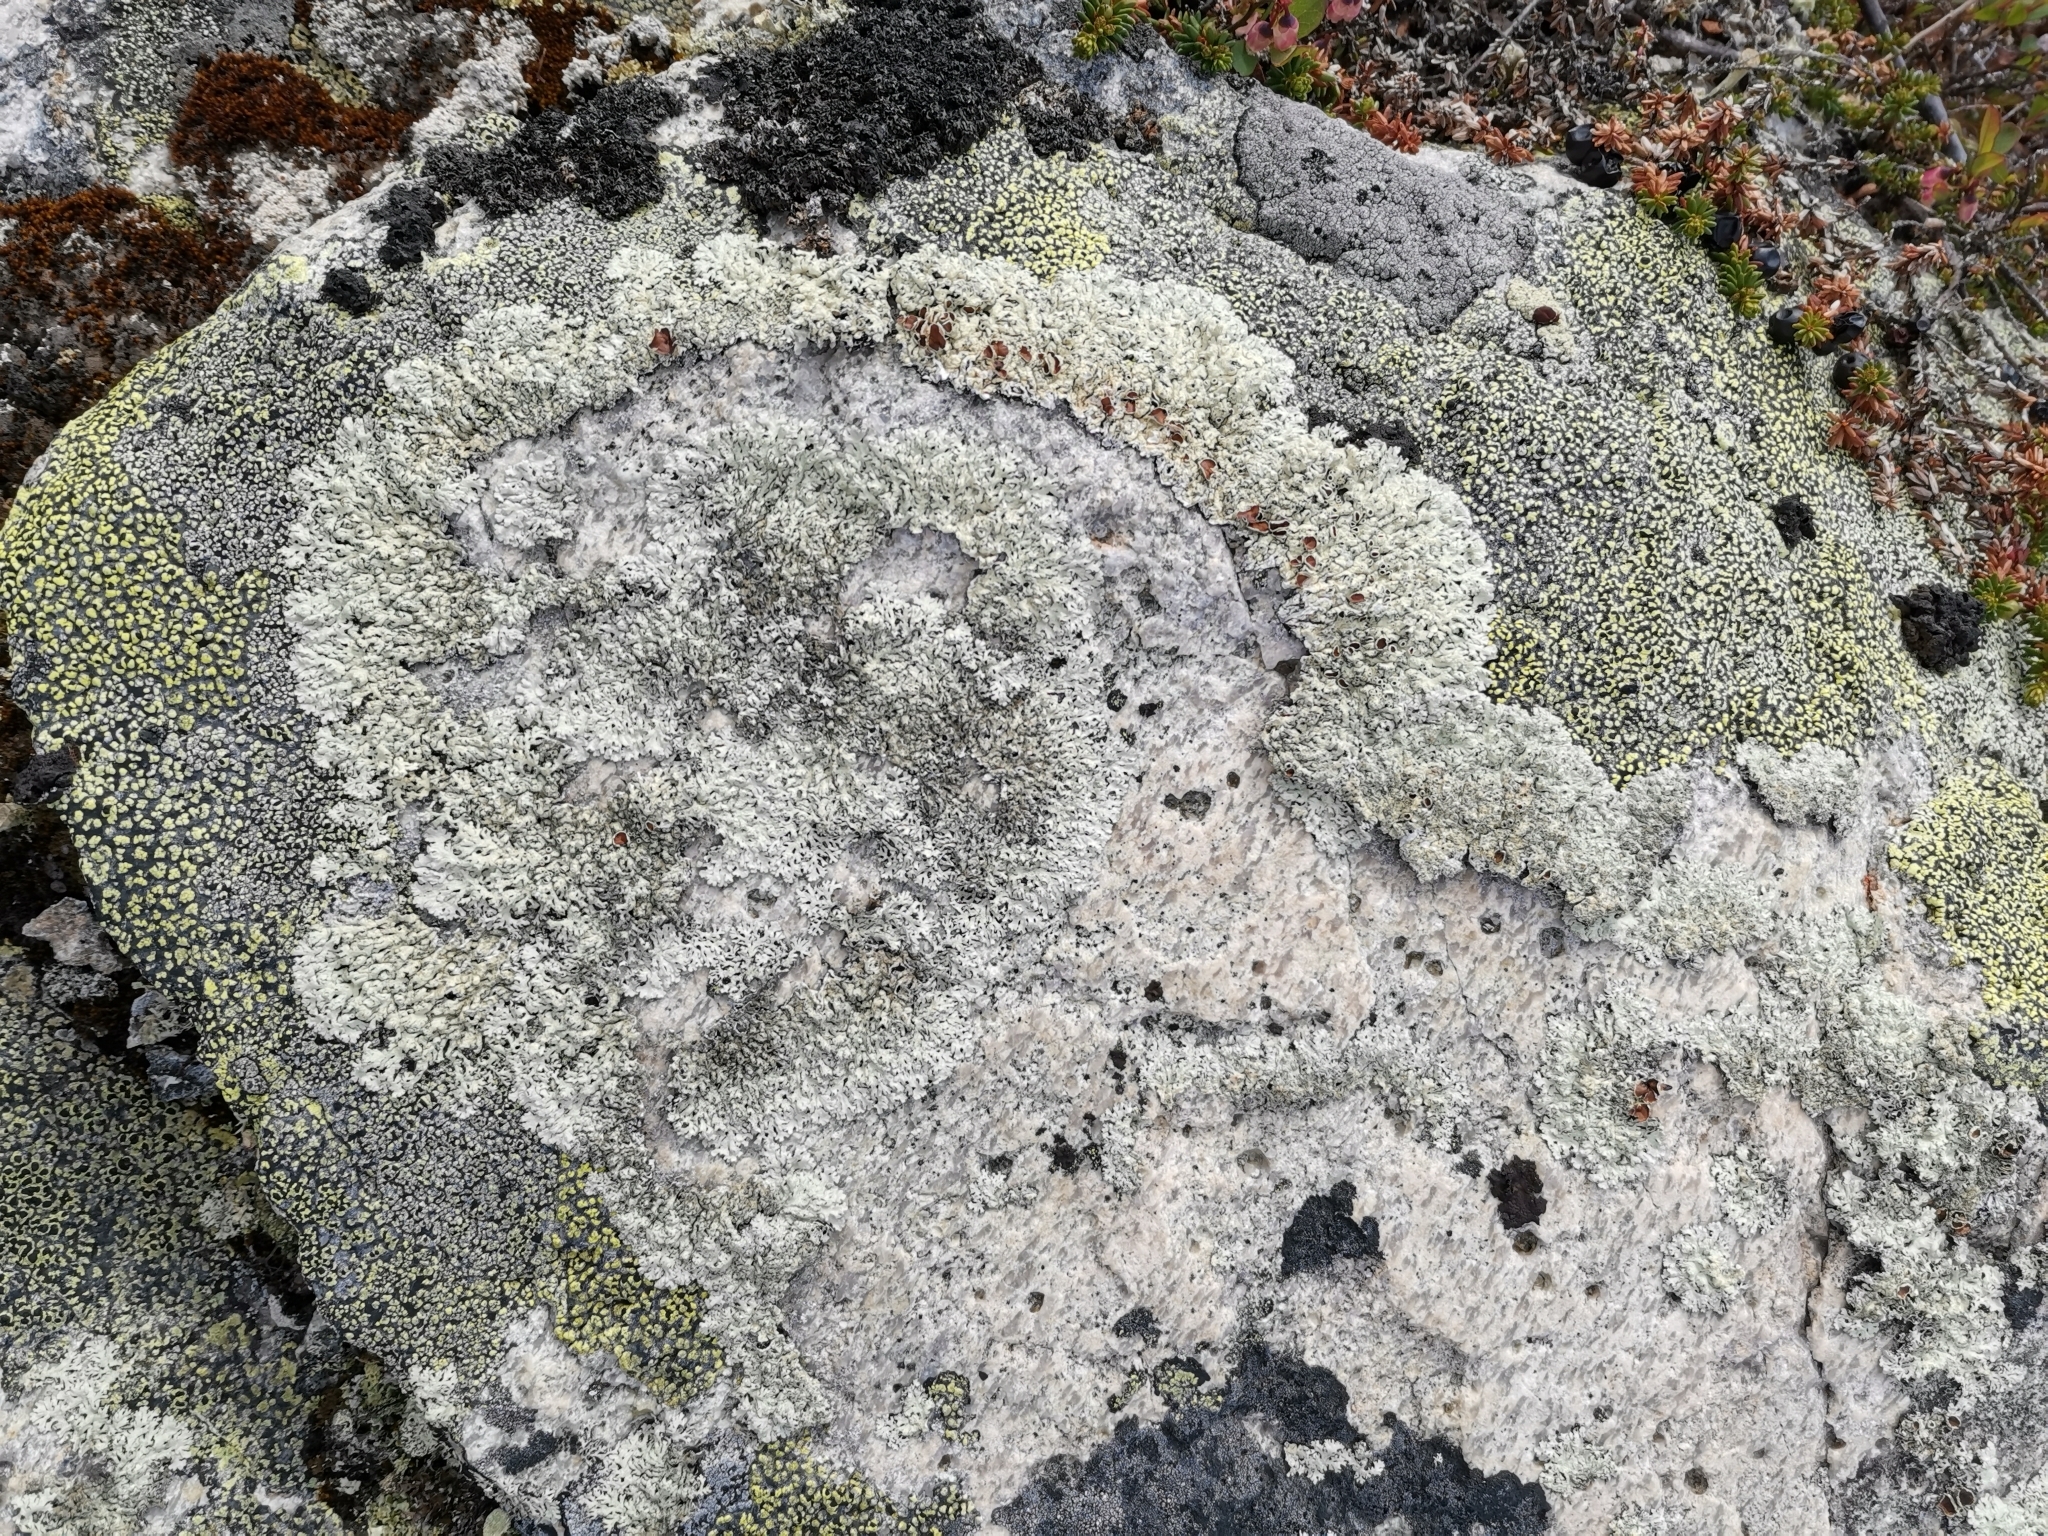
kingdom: Fungi
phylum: Ascomycota
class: Lecanoromycetes
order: Lecanorales
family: Parmeliaceae
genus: Arctoparmelia
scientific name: Arctoparmelia centrifuga
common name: Concentric ring lichen
